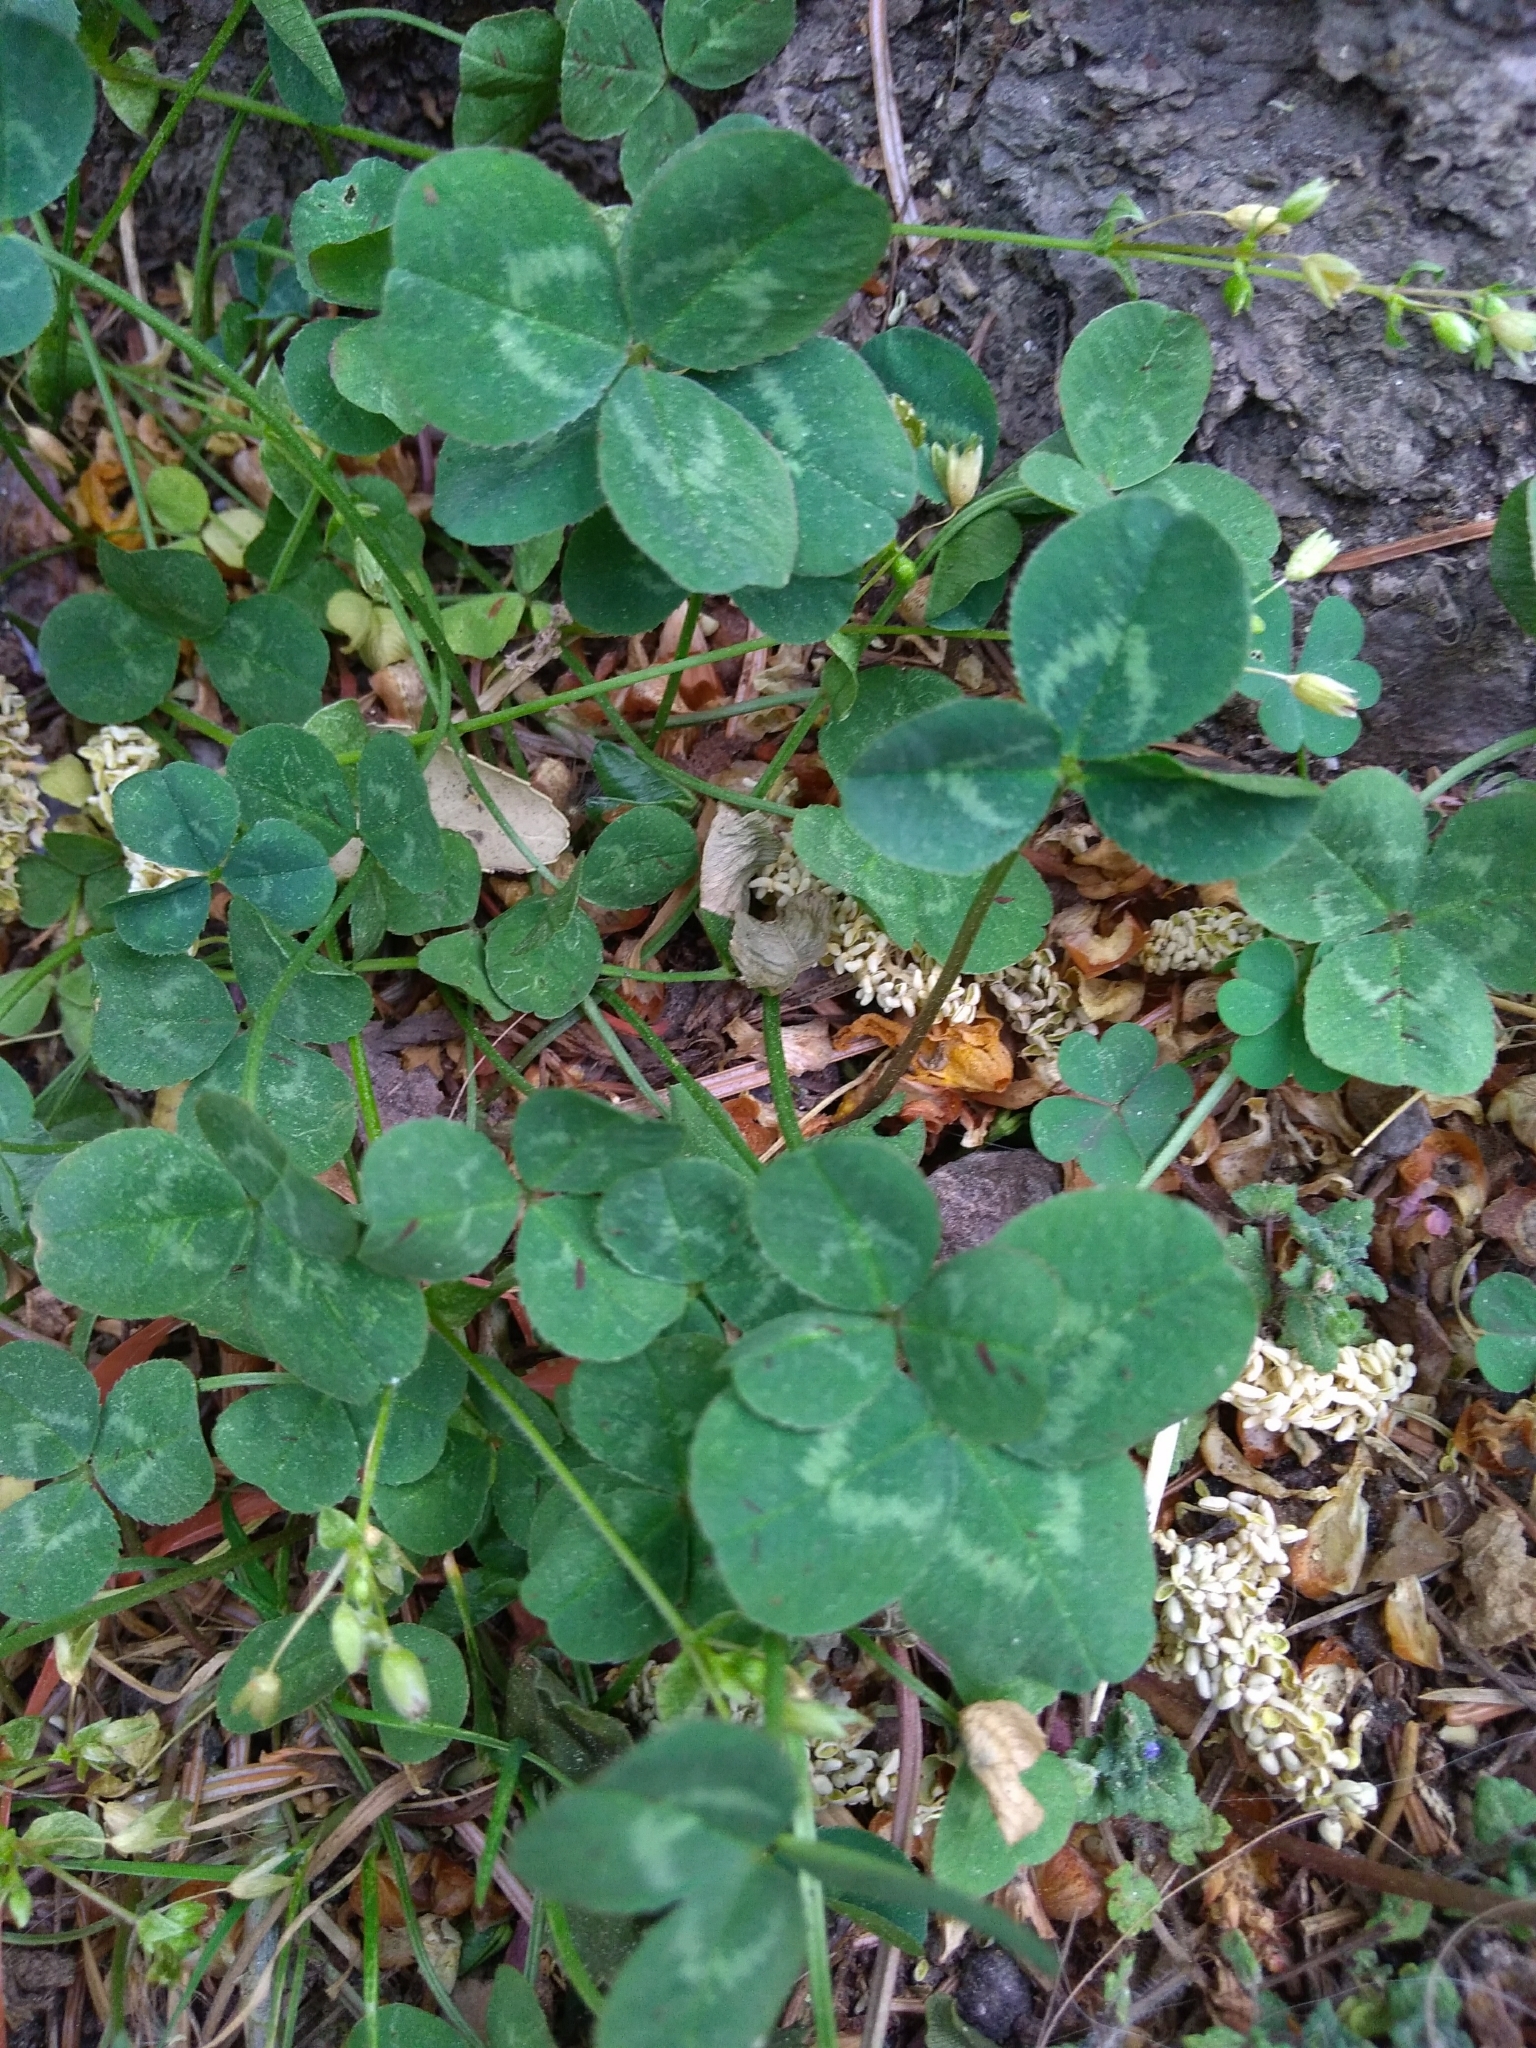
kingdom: Plantae
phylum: Tracheophyta
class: Magnoliopsida
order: Fabales
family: Fabaceae
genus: Trifolium
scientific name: Trifolium repens
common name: White clover
